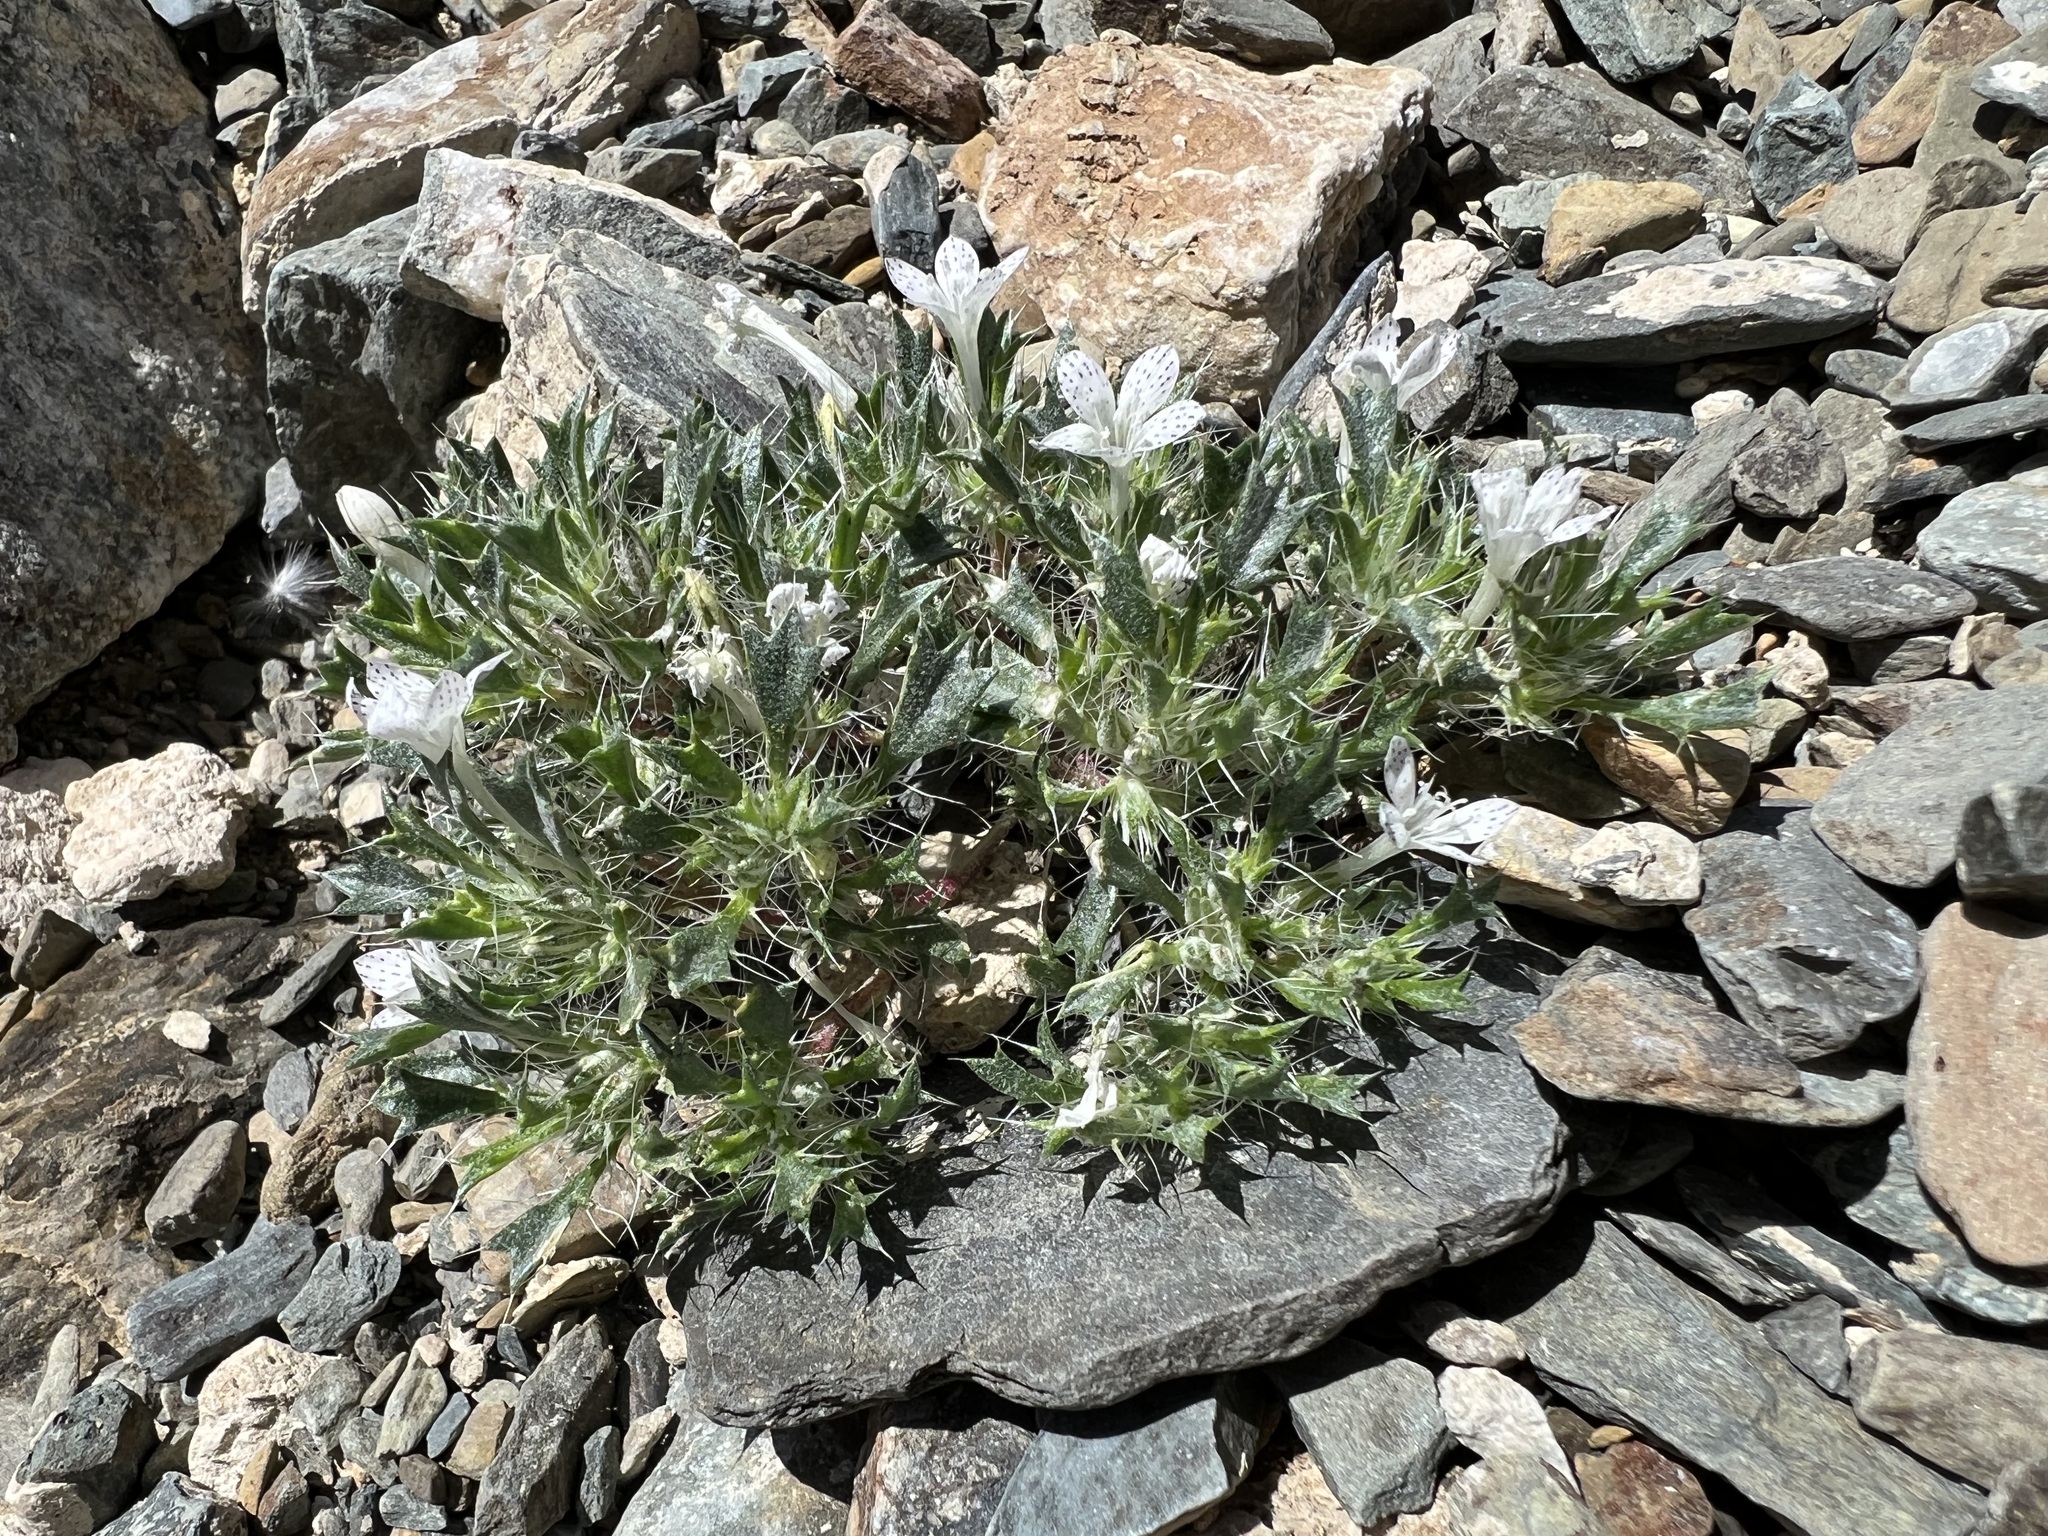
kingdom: Plantae
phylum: Tracheophyta
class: Magnoliopsida
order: Ericales
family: Polemoniaceae
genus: Langloisia
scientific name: Langloisia setosissima
